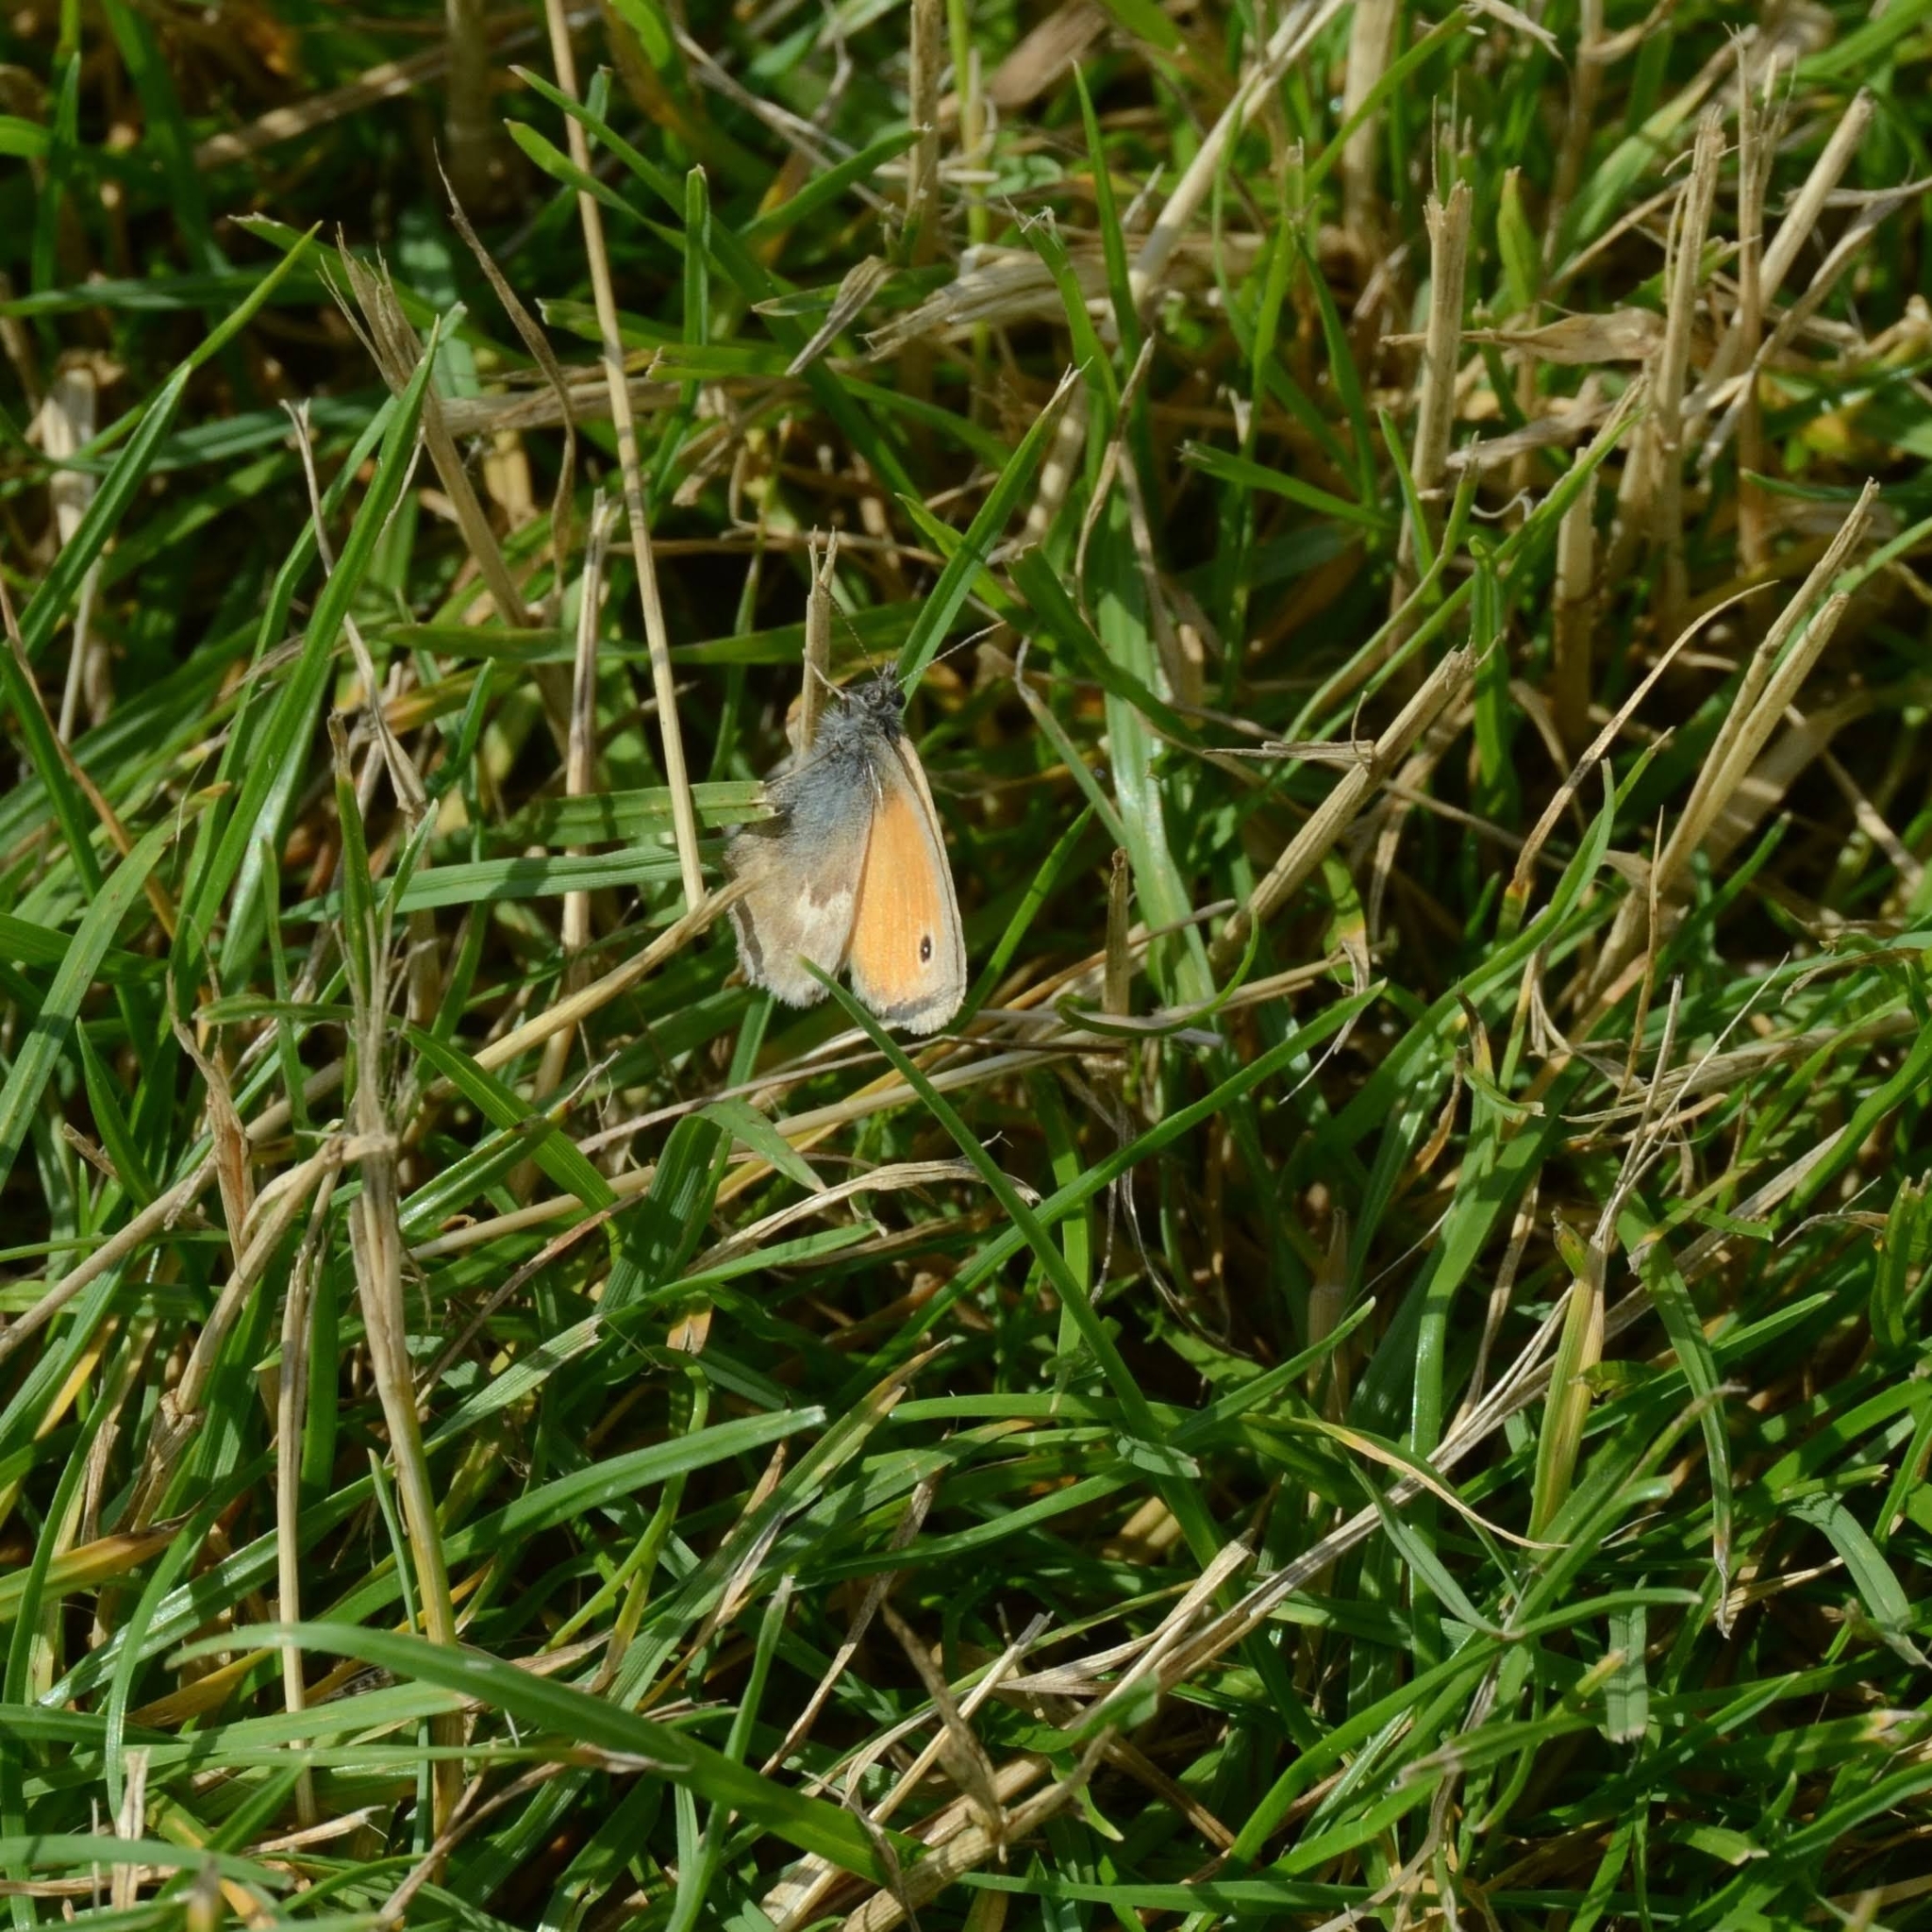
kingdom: Animalia
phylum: Arthropoda
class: Insecta
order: Lepidoptera
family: Nymphalidae
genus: Coenonympha
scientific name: Coenonympha pamphilus
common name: Small heath
